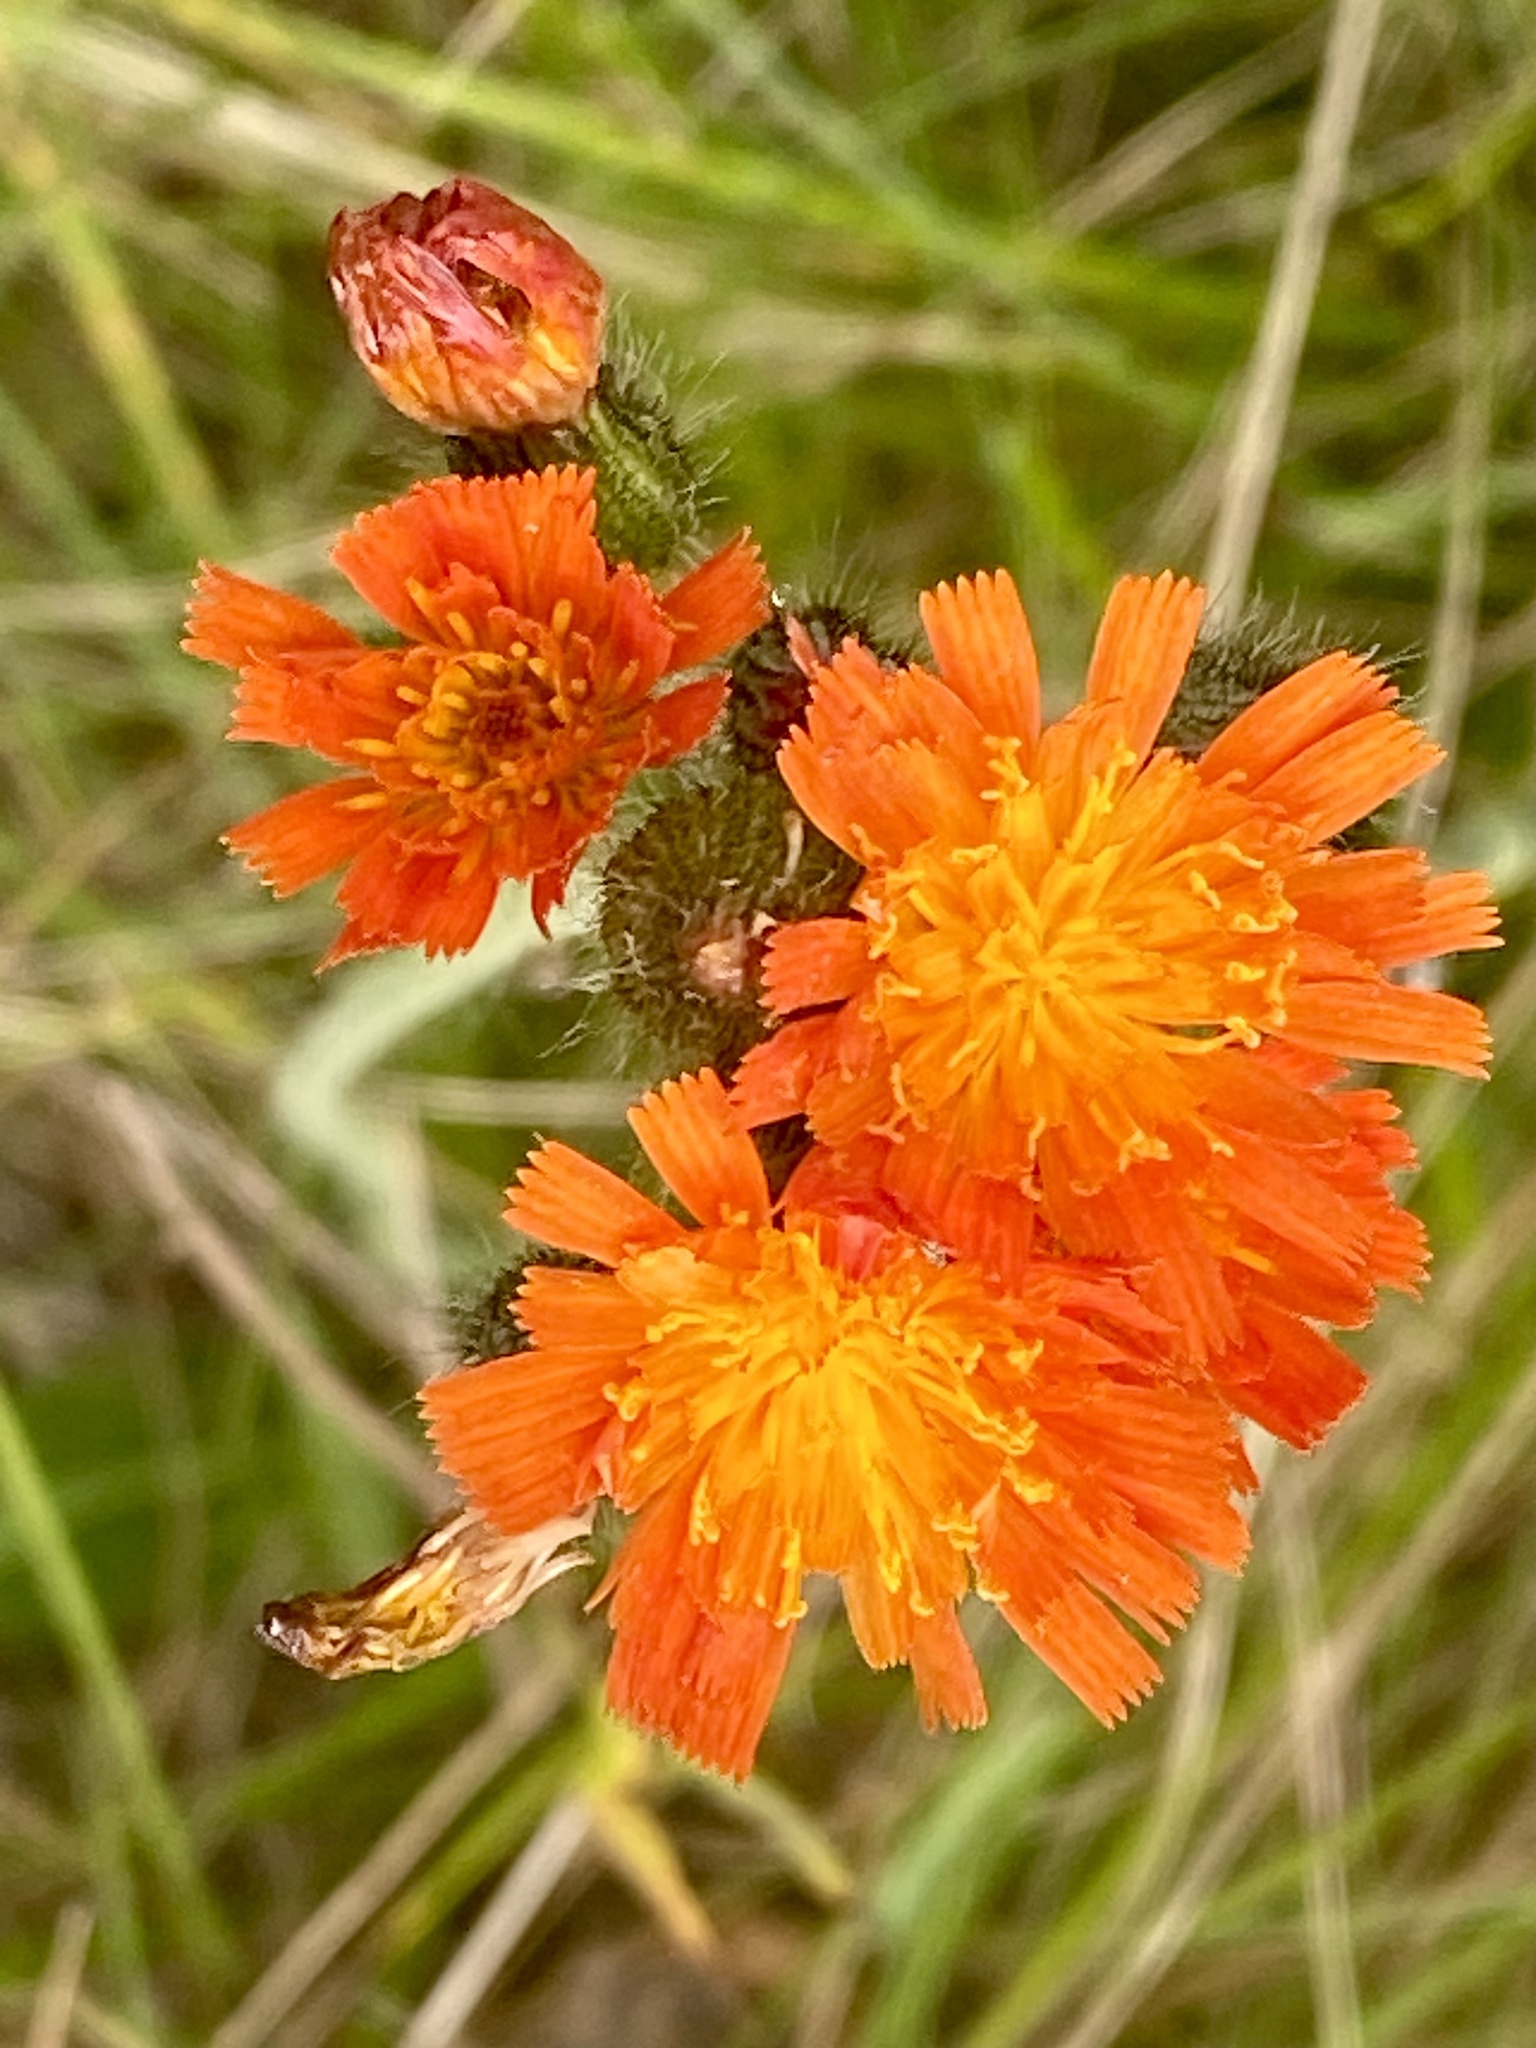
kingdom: Plantae
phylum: Tracheophyta
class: Magnoliopsida
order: Asterales
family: Asteraceae
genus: Pilosella
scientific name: Pilosella aurantiaca
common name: Fox-and-cubs
